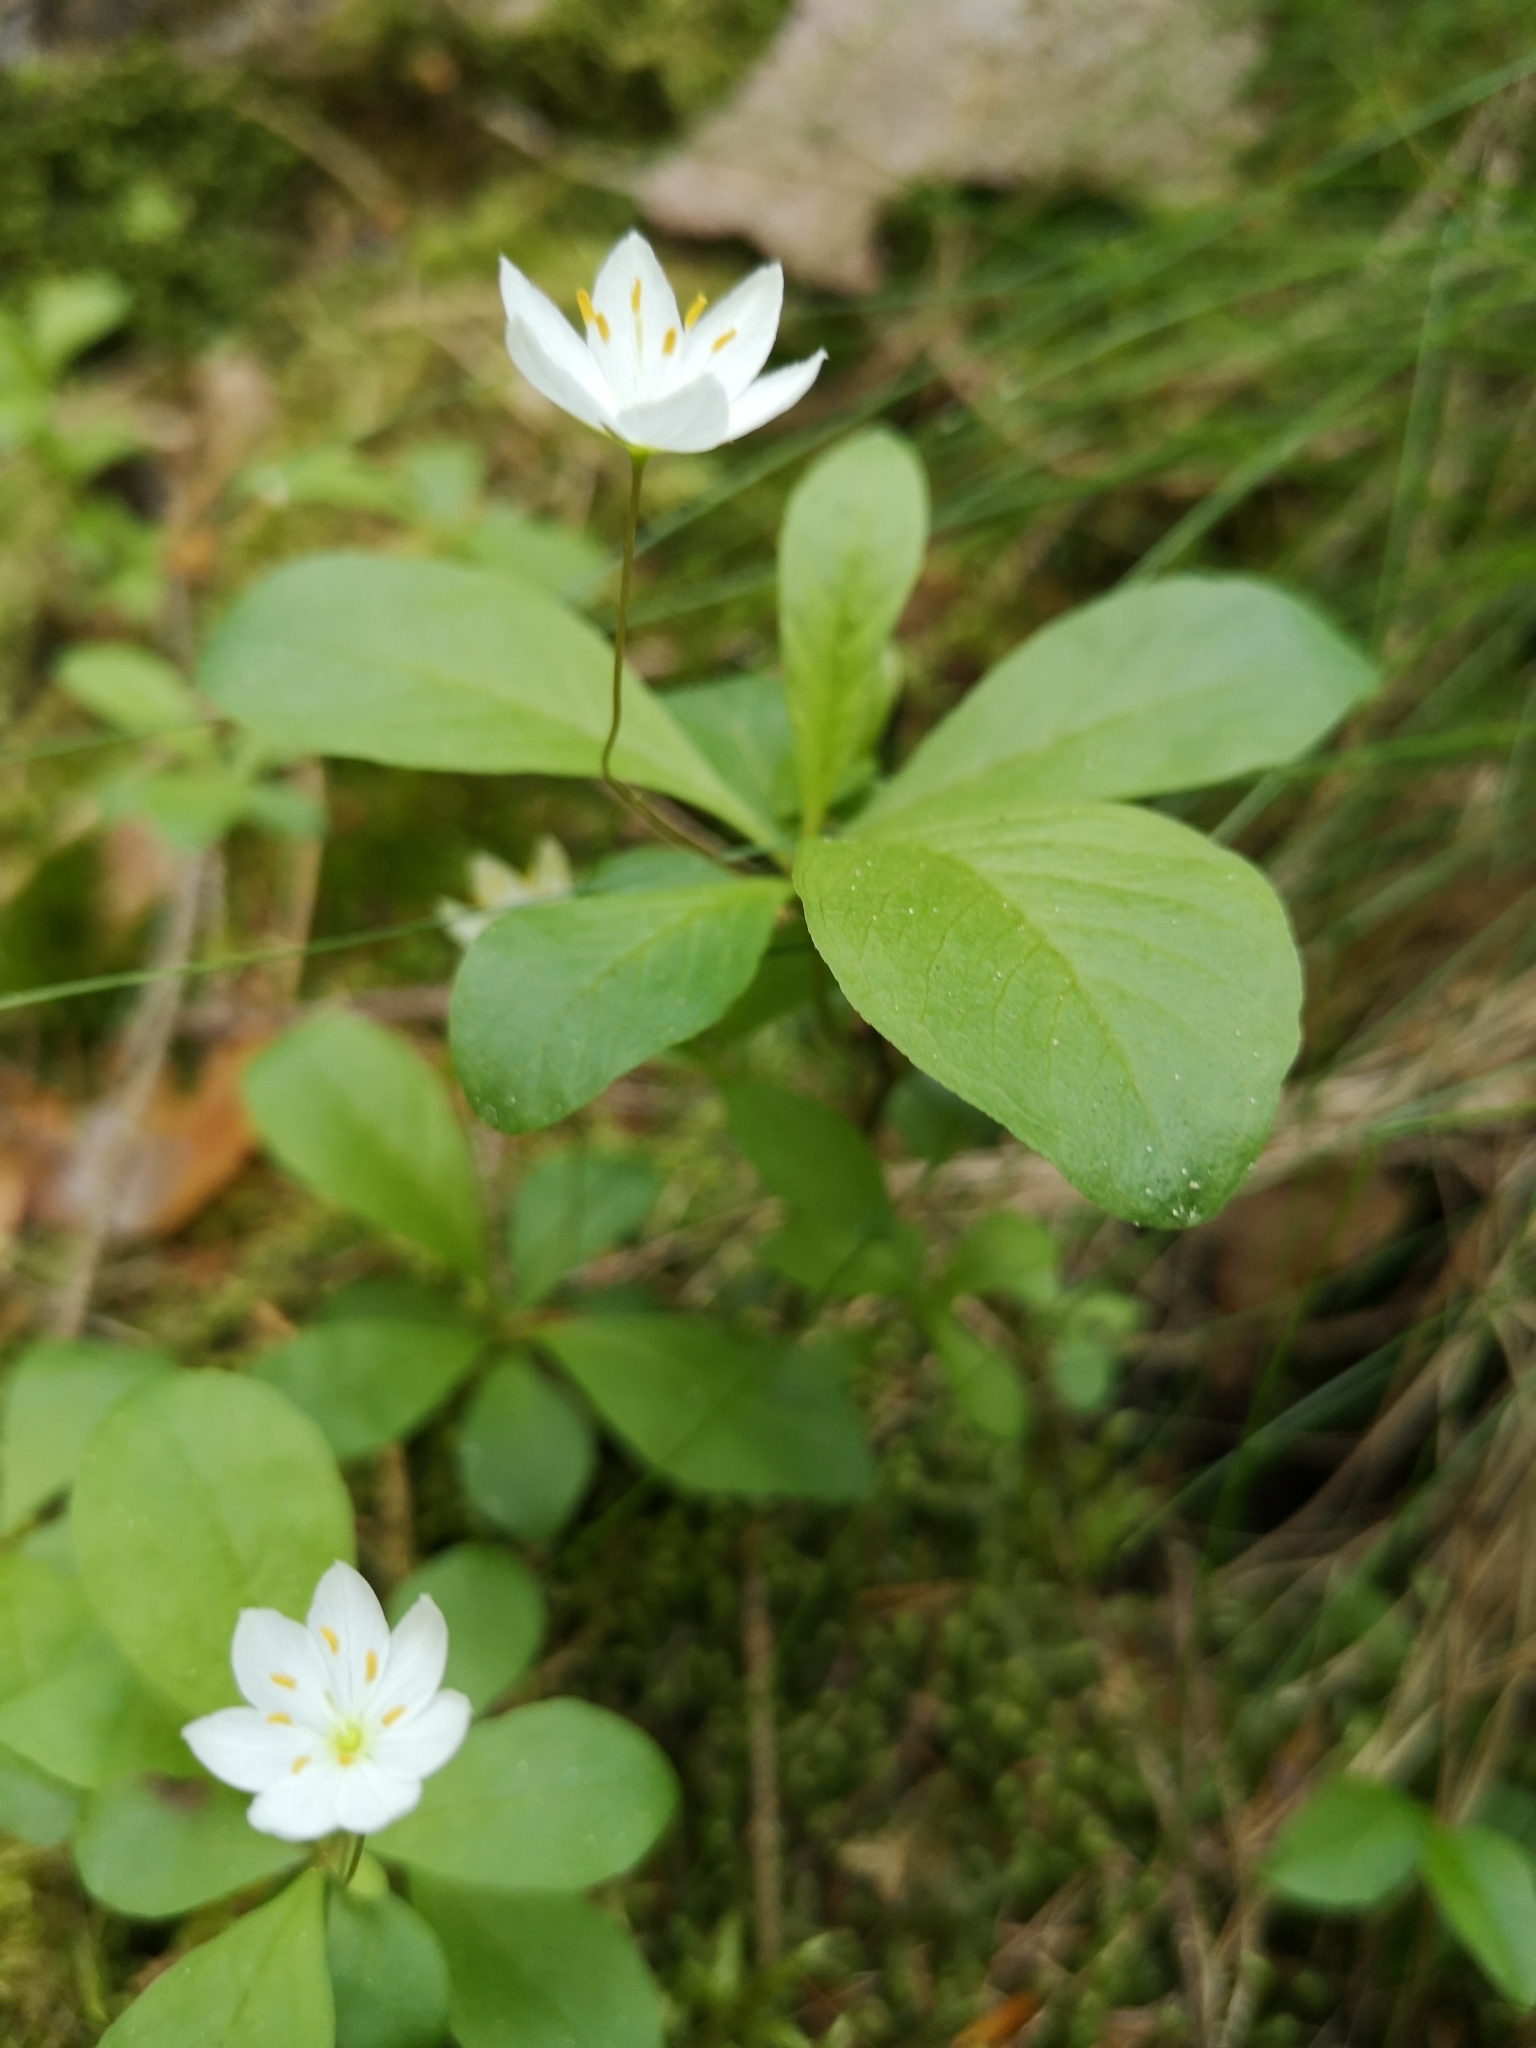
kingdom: Plantae
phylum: Tracheophyta
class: Magnoliopsida
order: Ericales
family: Primulaceae
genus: Lysimachia
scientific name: Lysimachia europaea
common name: Arctic starflower
